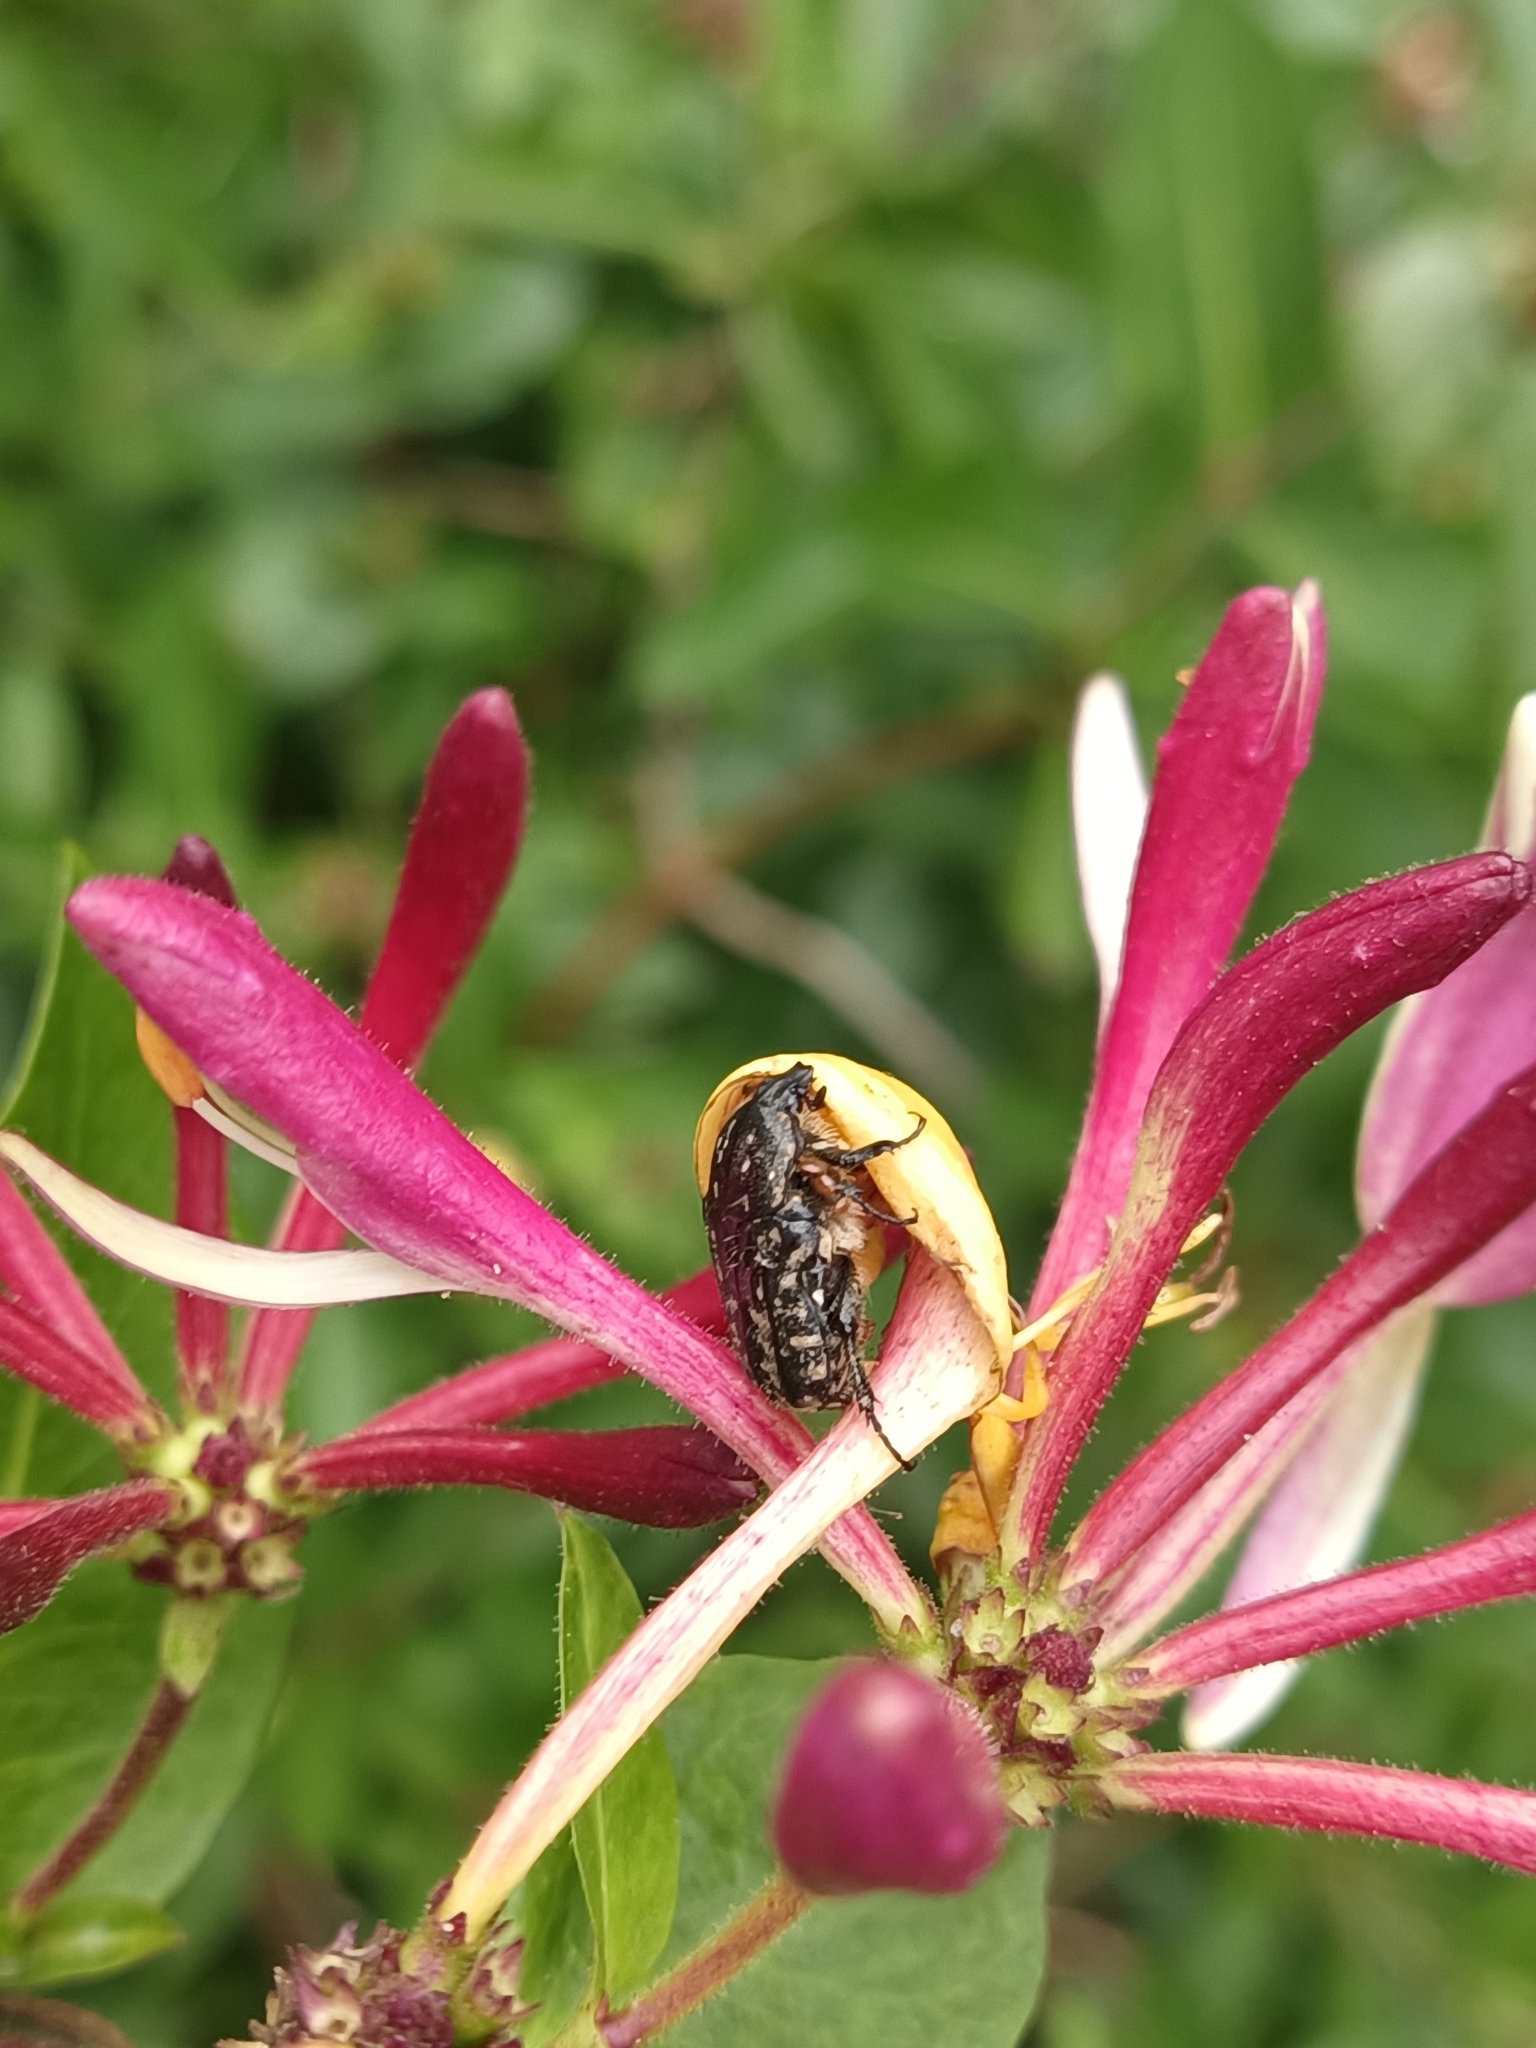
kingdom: Animalia
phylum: Arthropoda
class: Insecta
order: Coleoptera
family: Scarabaeidae
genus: Oxythyrea
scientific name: Oxythyrea funesta
